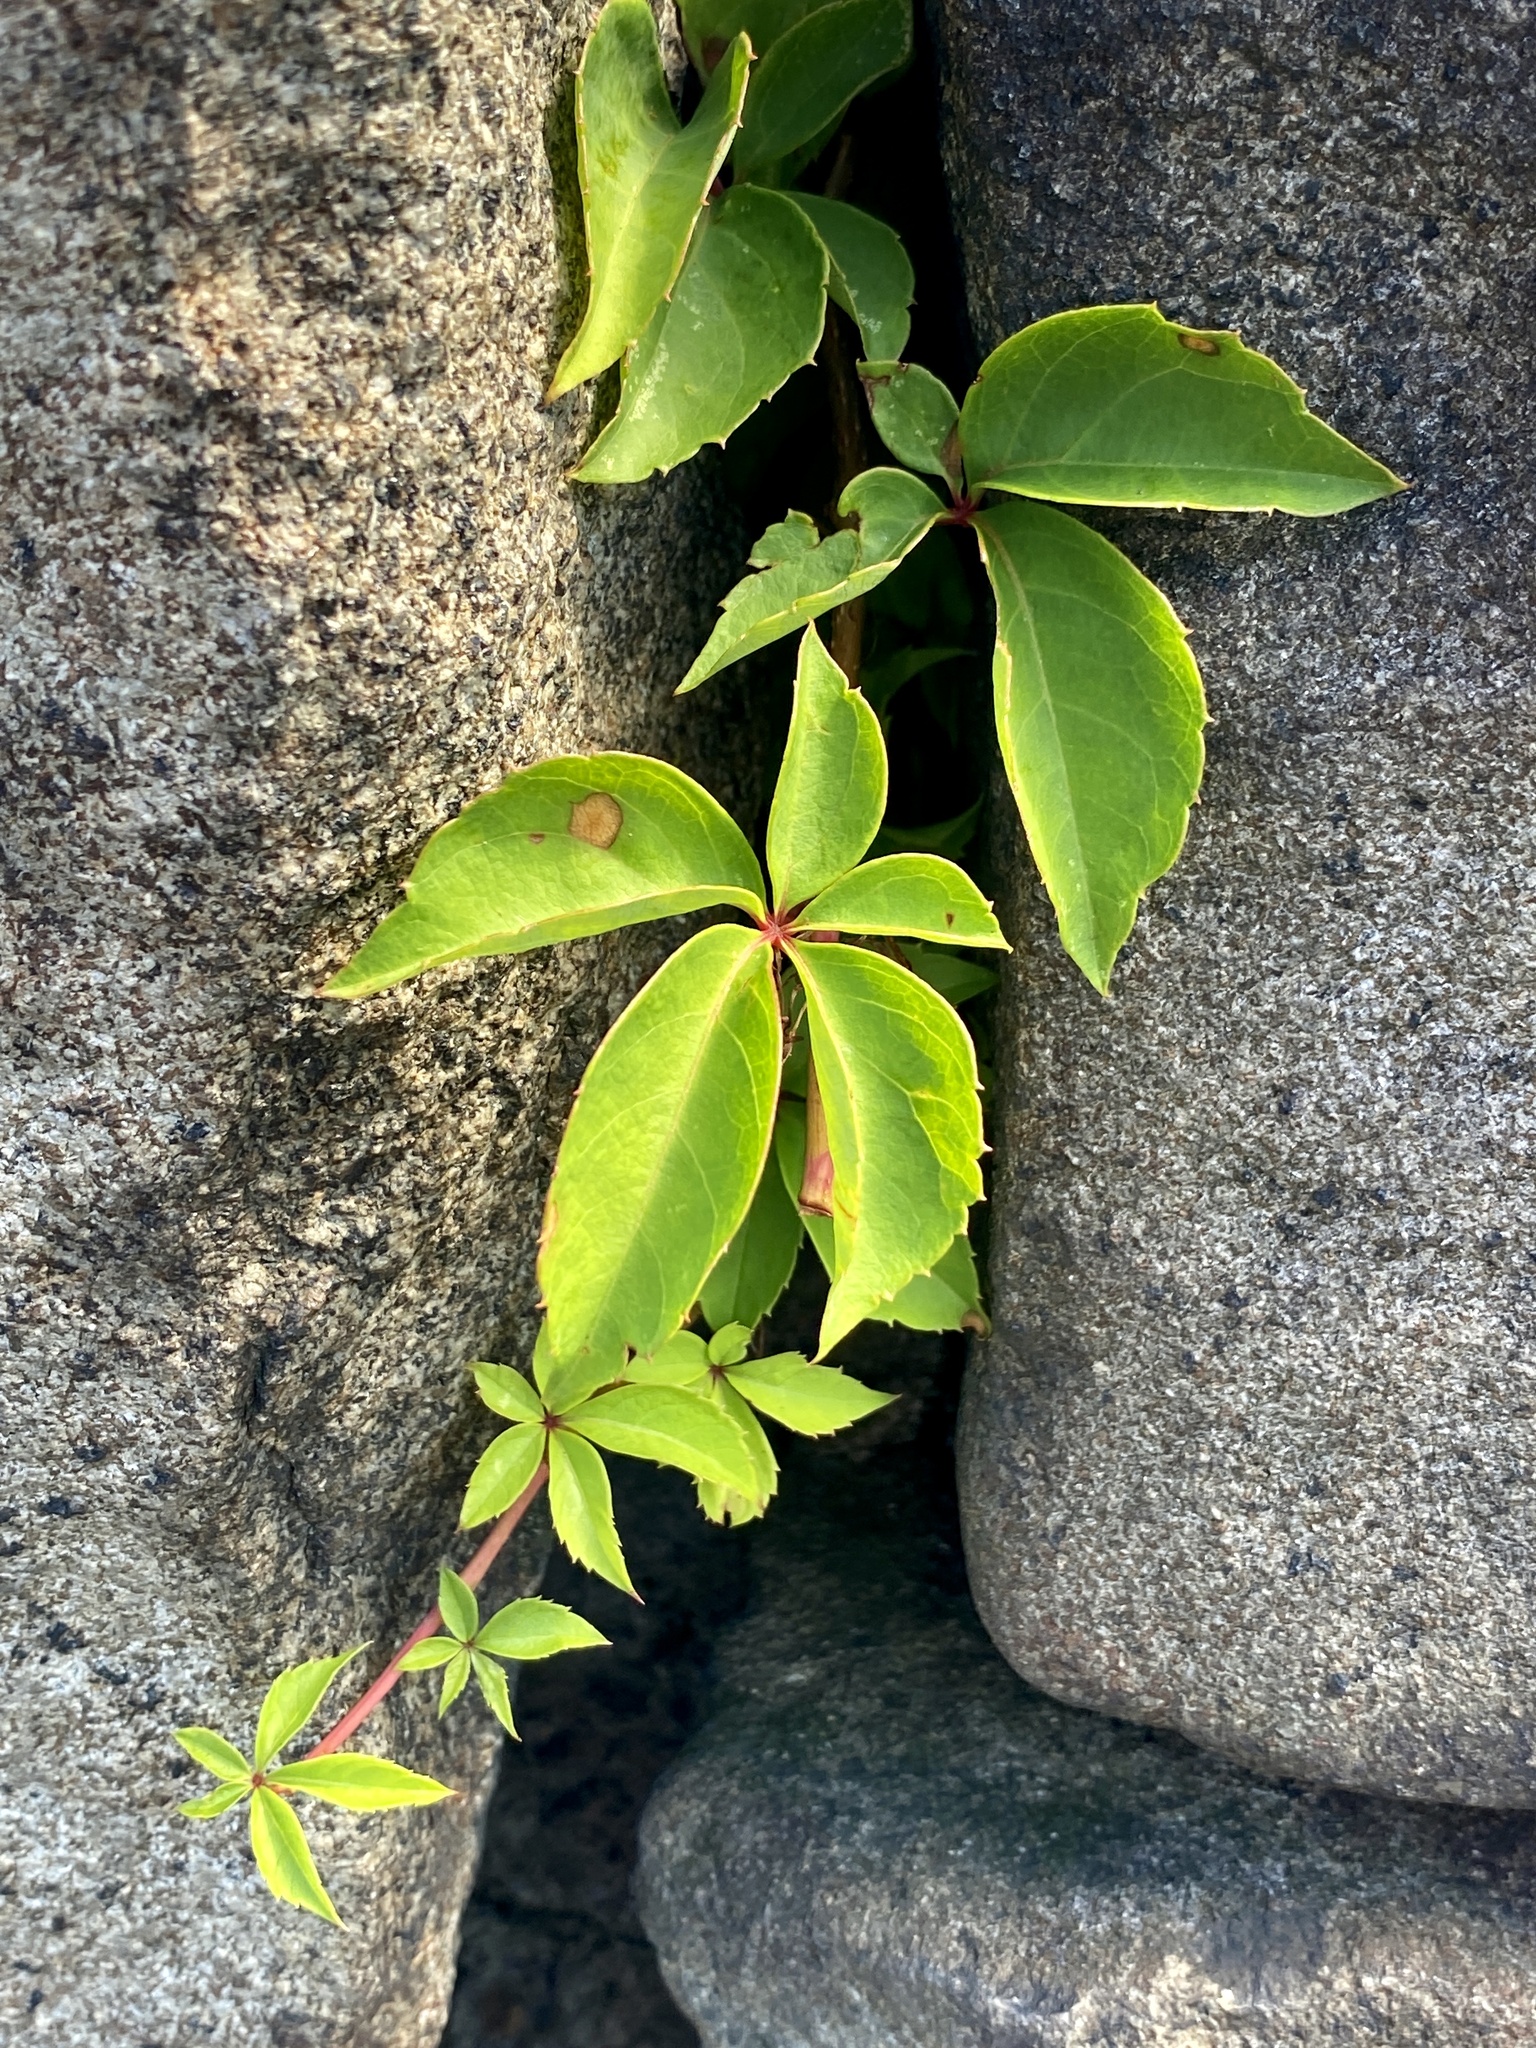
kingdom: Plantae
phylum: Tracheophyta
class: Magnoliopsida
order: Vitales
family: Vitaceae
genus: Parthenocissus
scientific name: Parthenocissus quinquefolia
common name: Virginia-creeper
